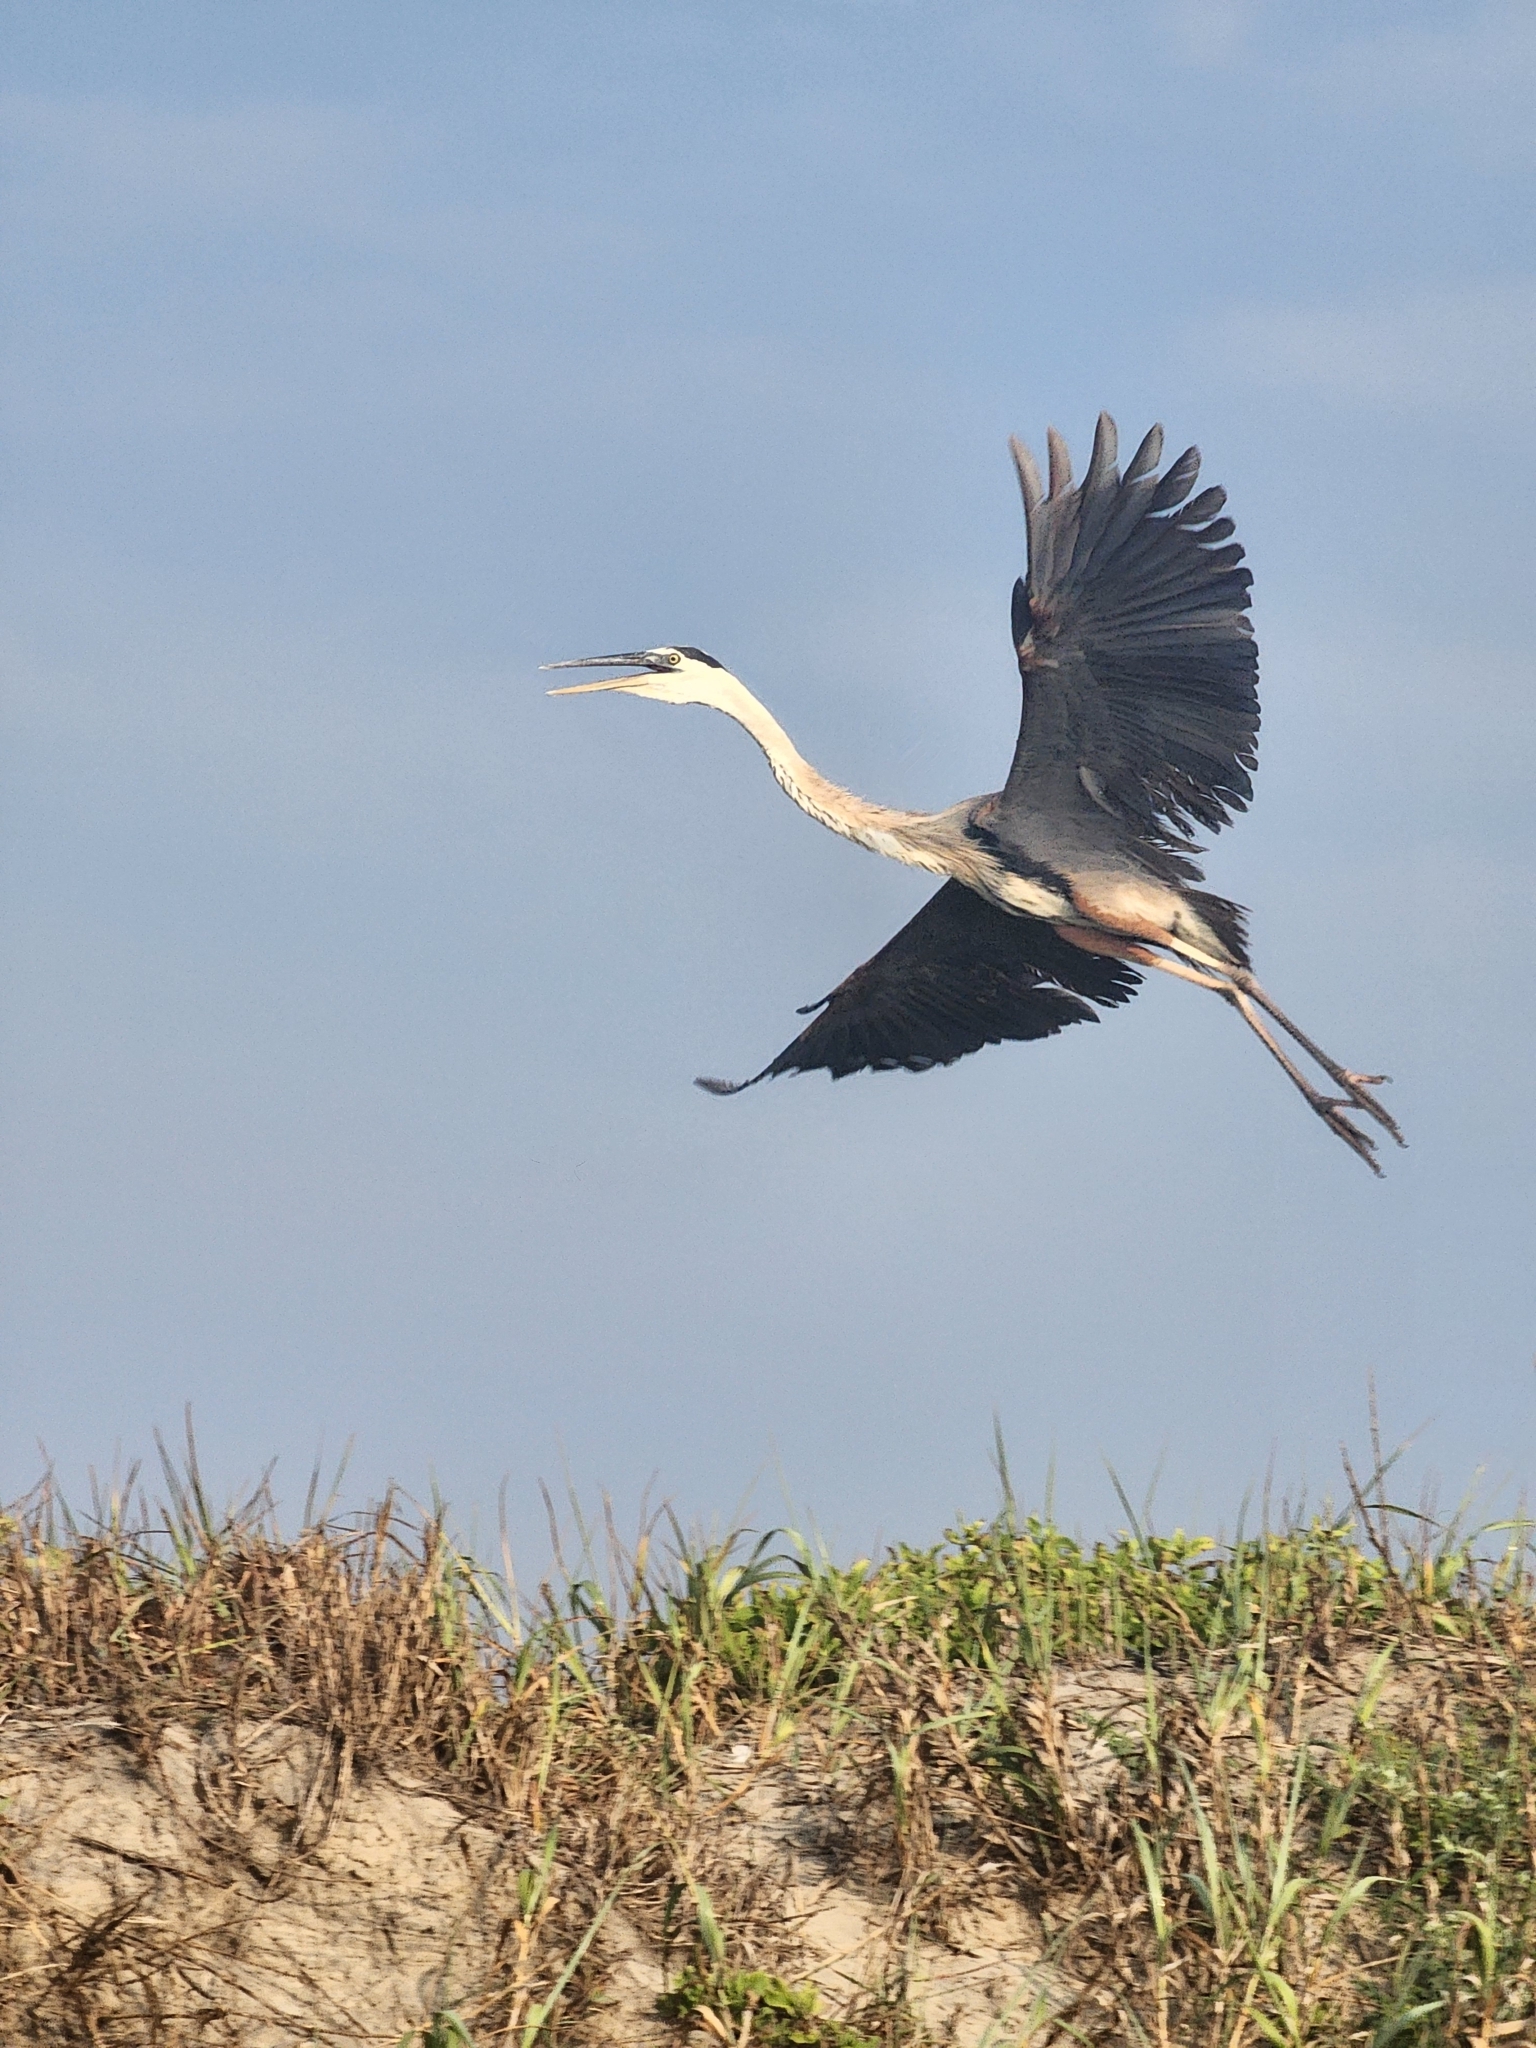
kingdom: Animalia
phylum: Chordata
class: Aves
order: Pelecaniformes
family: Ardeidae
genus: Ardea
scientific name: Ardea herodias
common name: Great blue heron
